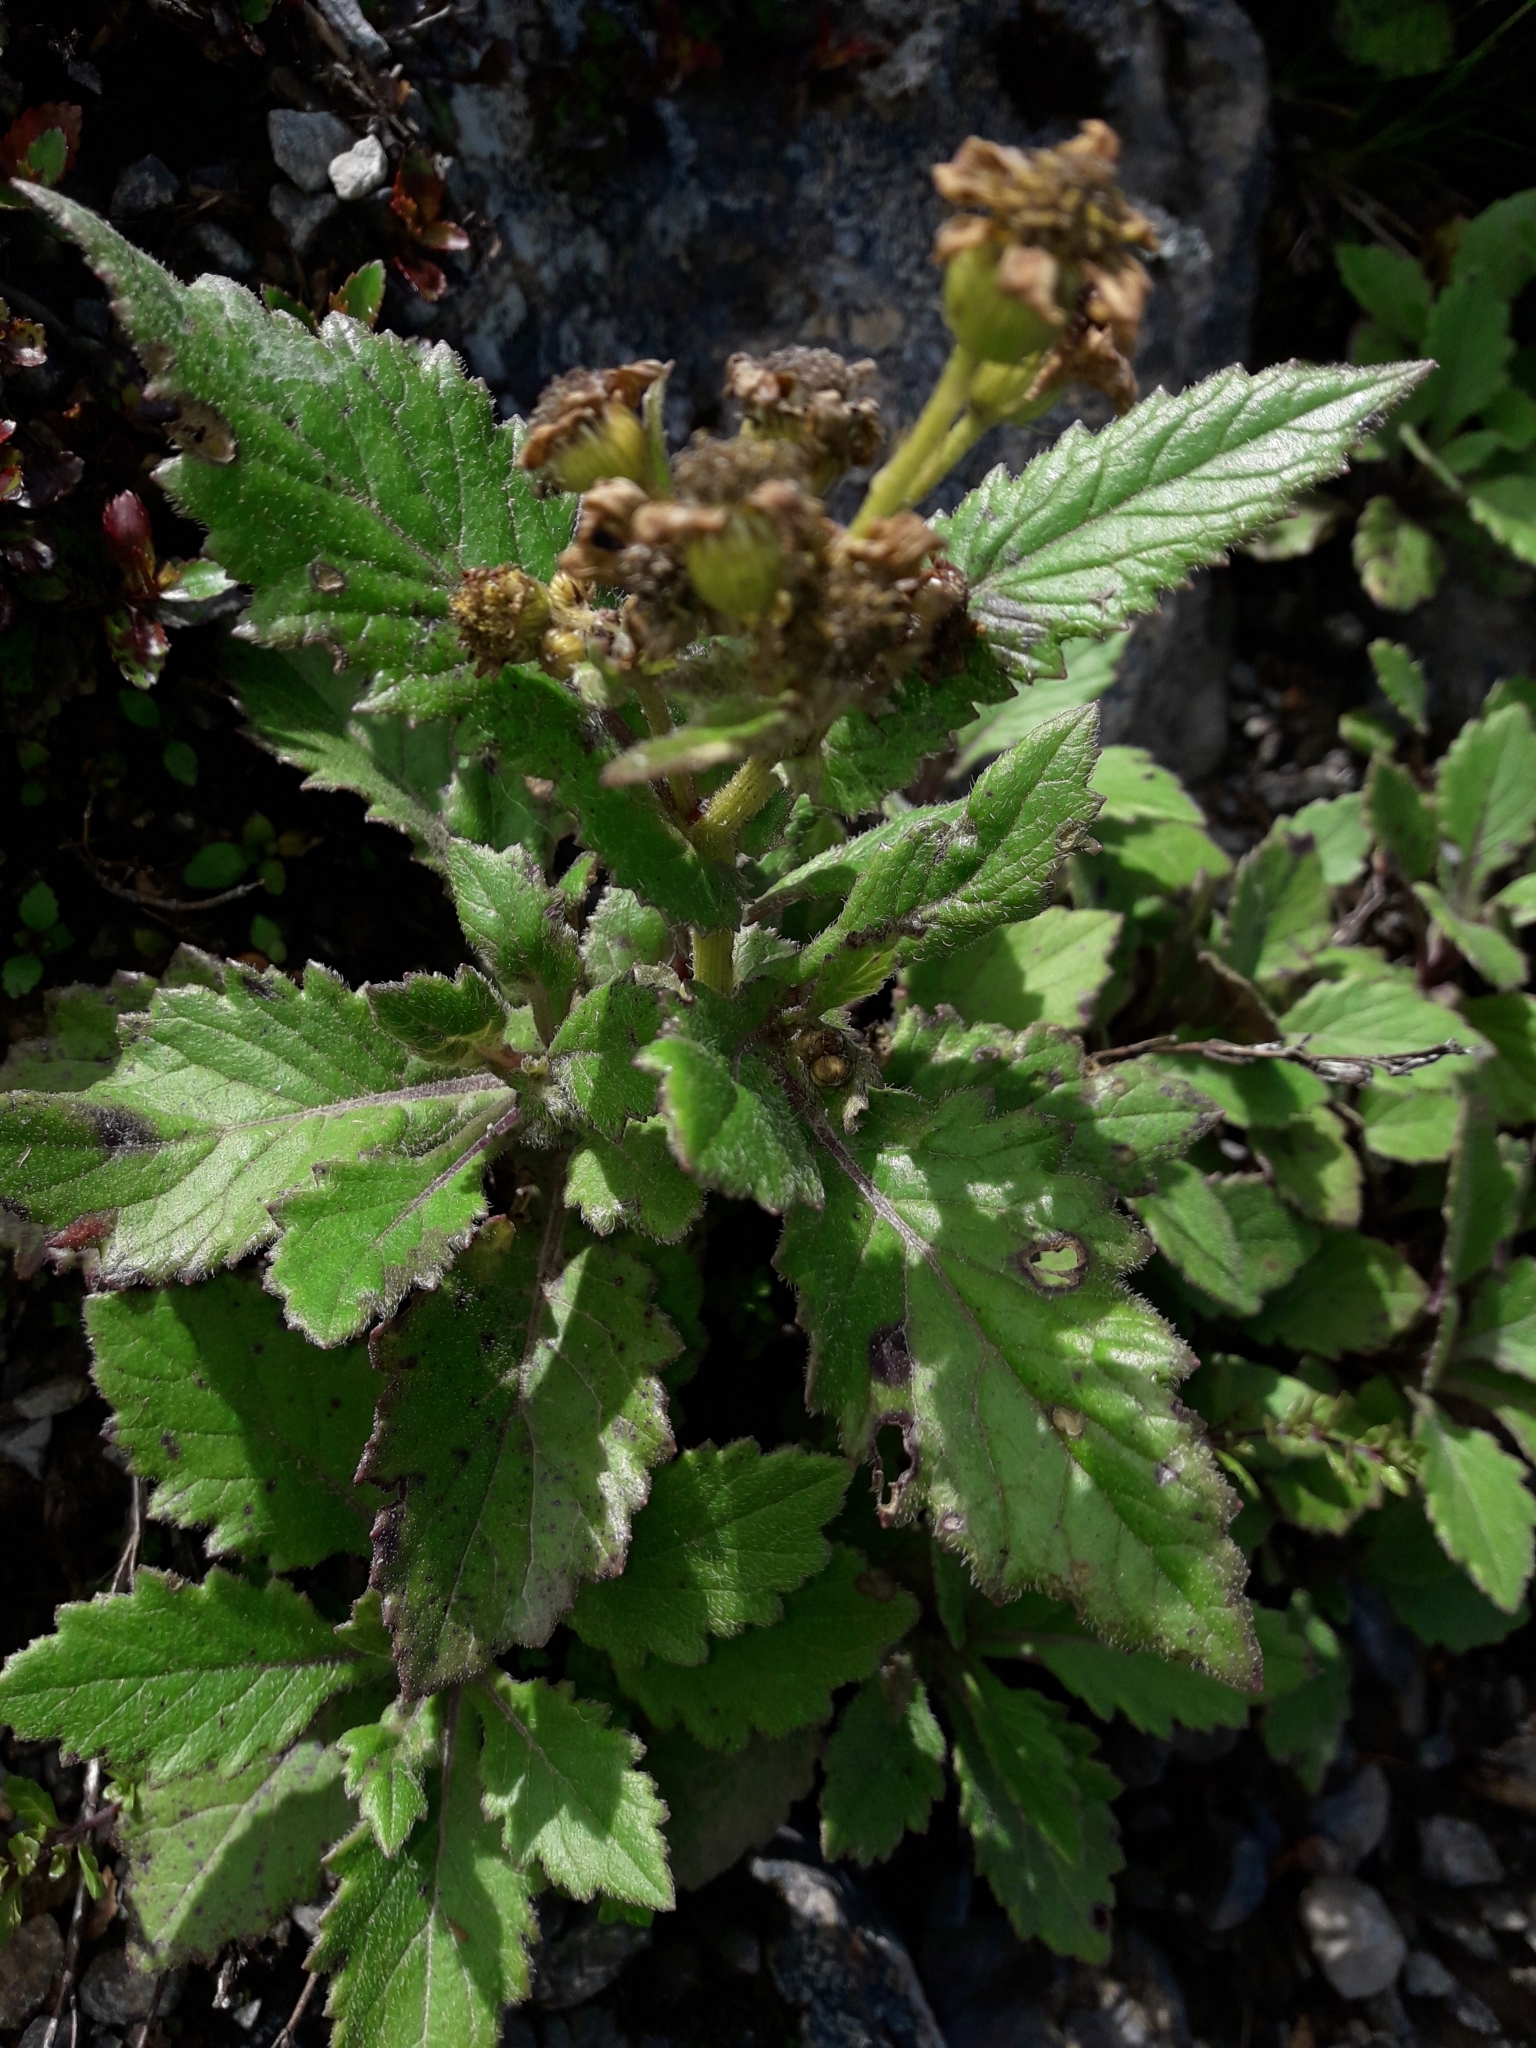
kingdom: Plantae
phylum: Tracheophyta
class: Magnoliopsida
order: Asterales
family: Asteraceae
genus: Senecio
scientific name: Senecio rufiglandulosus
